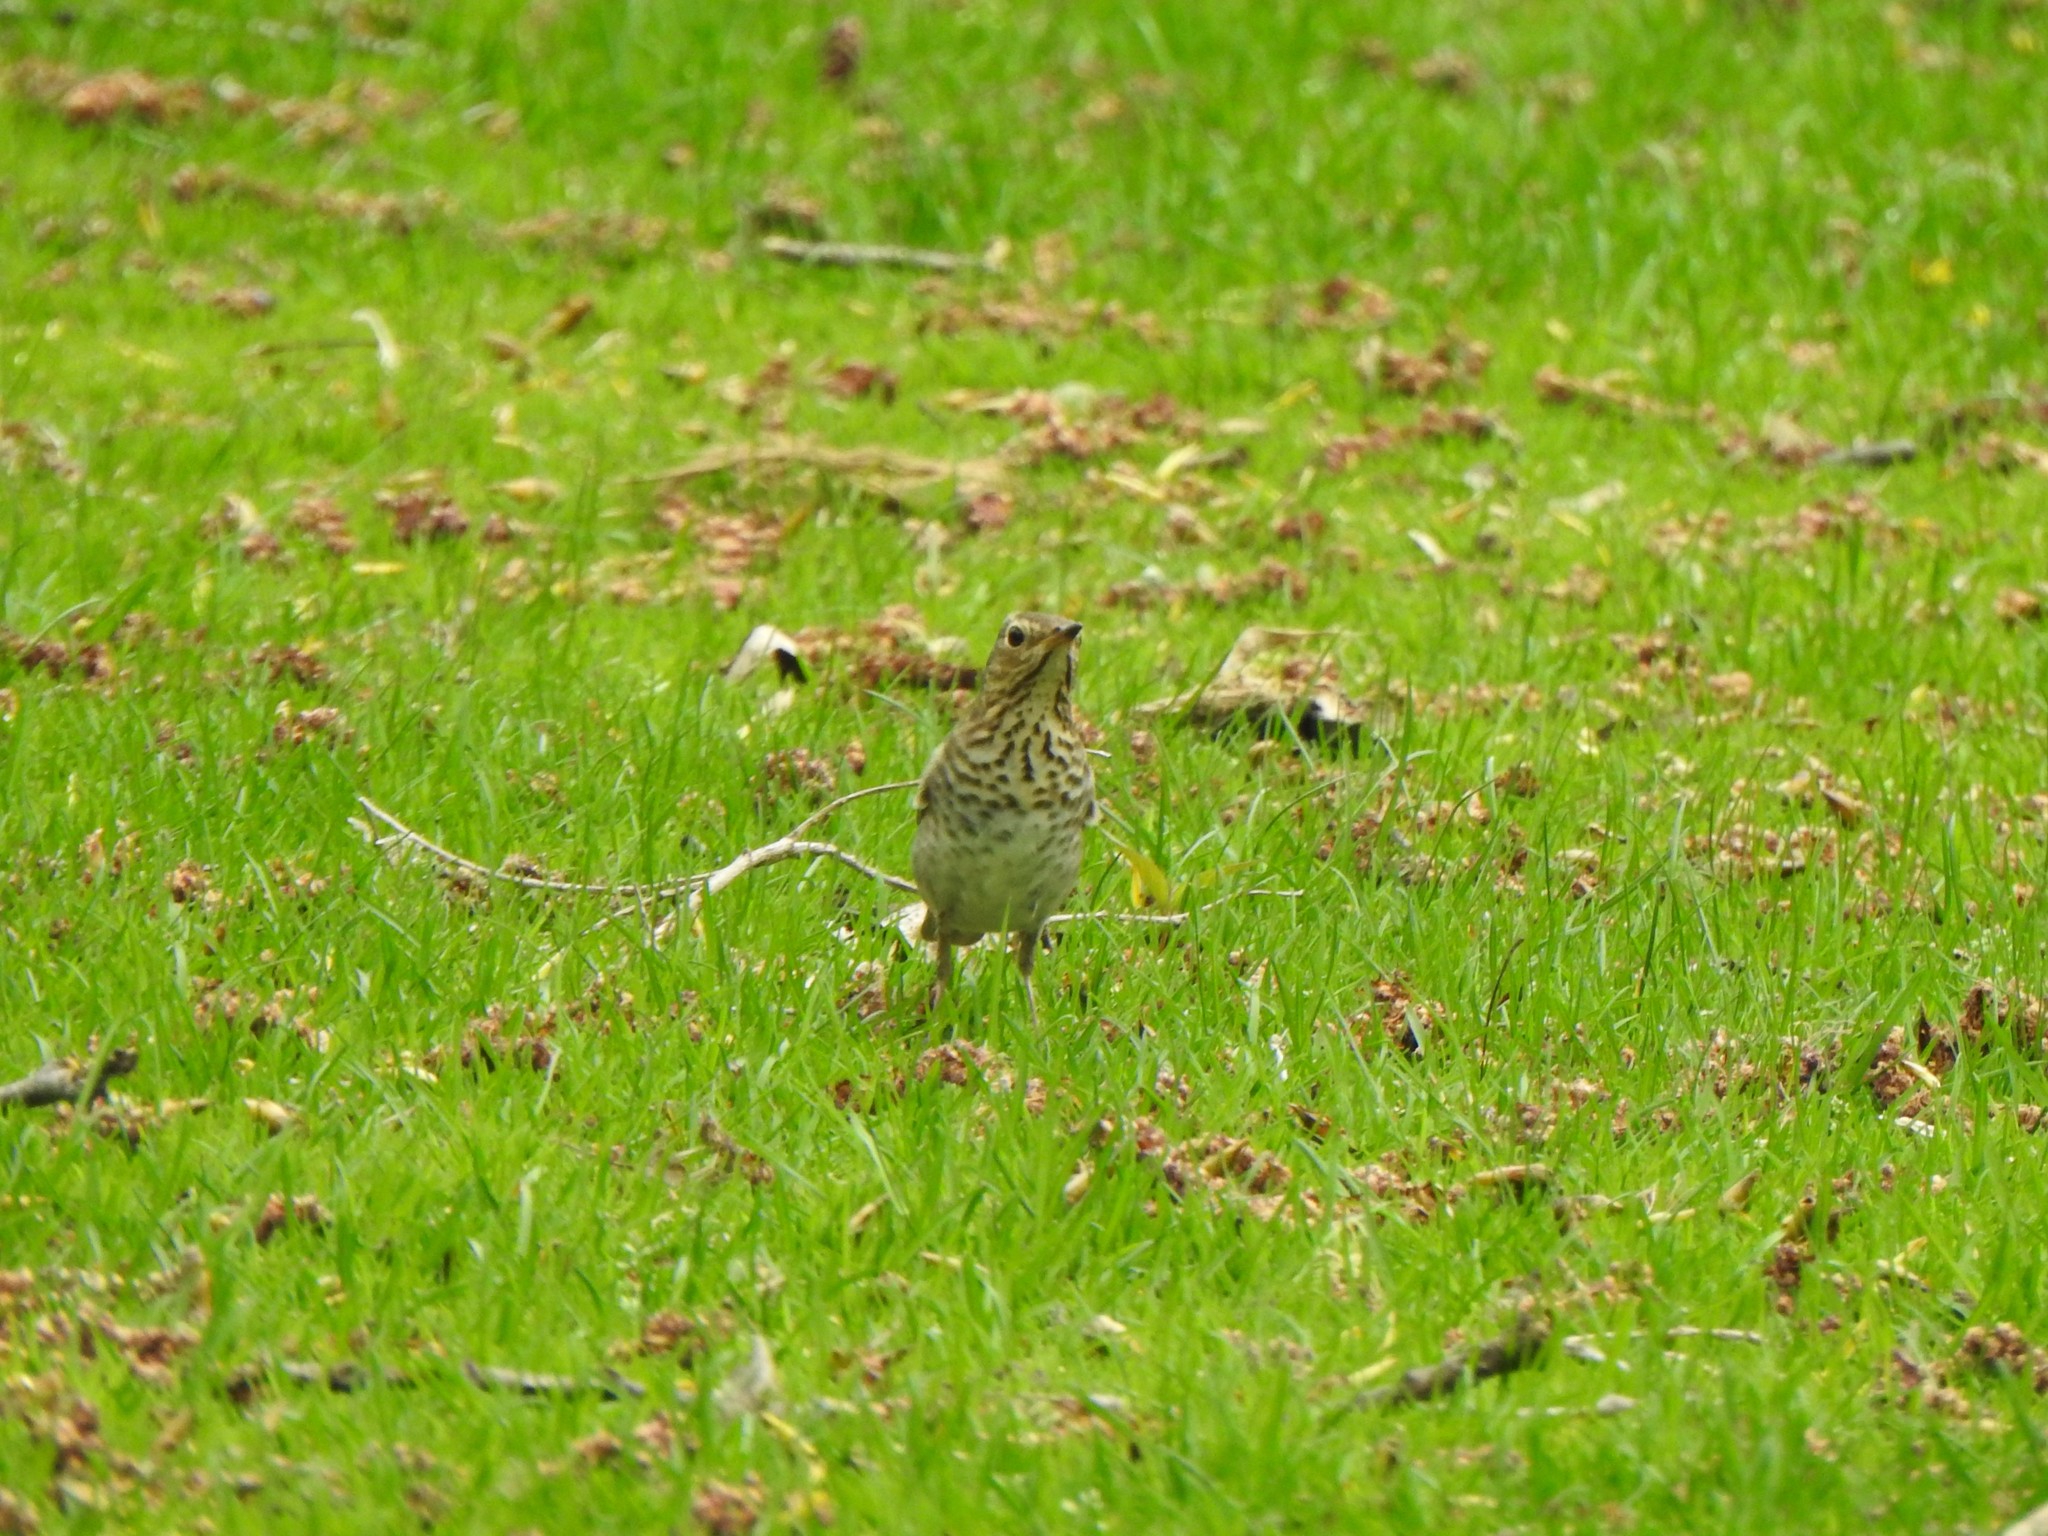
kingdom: Animalia
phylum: Chordata
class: Aves
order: Passeriformes
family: Turdidae
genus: Catharus
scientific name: Catharus ustulatus
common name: Swainson's thrush
